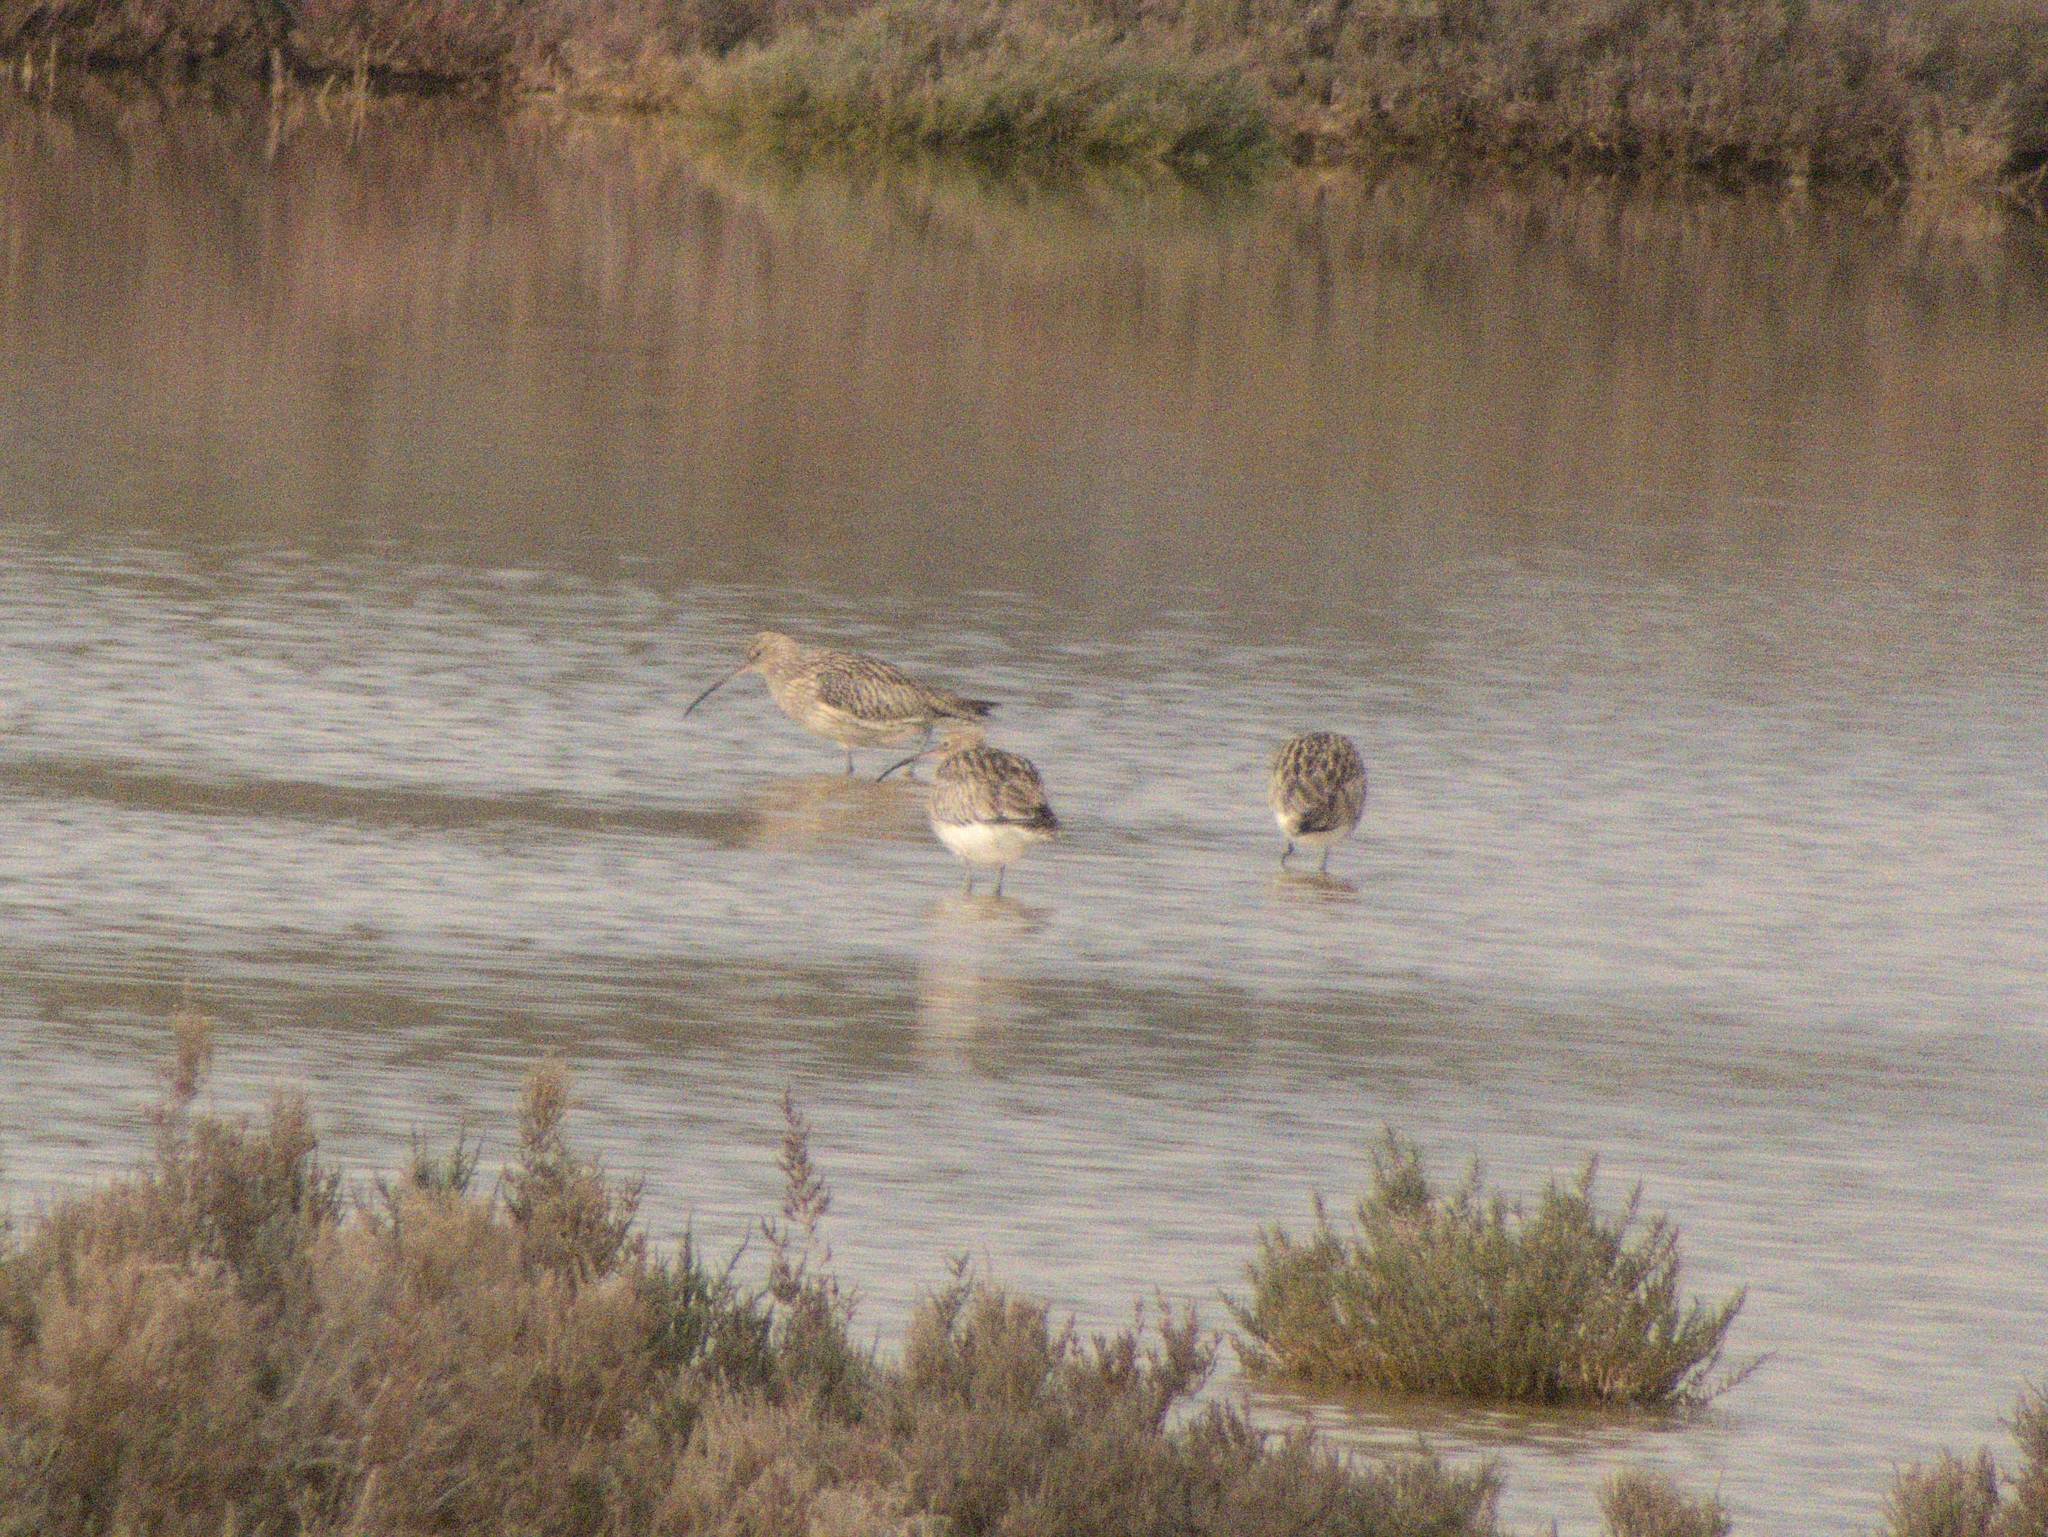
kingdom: Animalia
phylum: Chordata
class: Aves
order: Charadriiformes
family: Scolopacidae
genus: Numenius
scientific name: Numenius arquata
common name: Eurasian curlew
